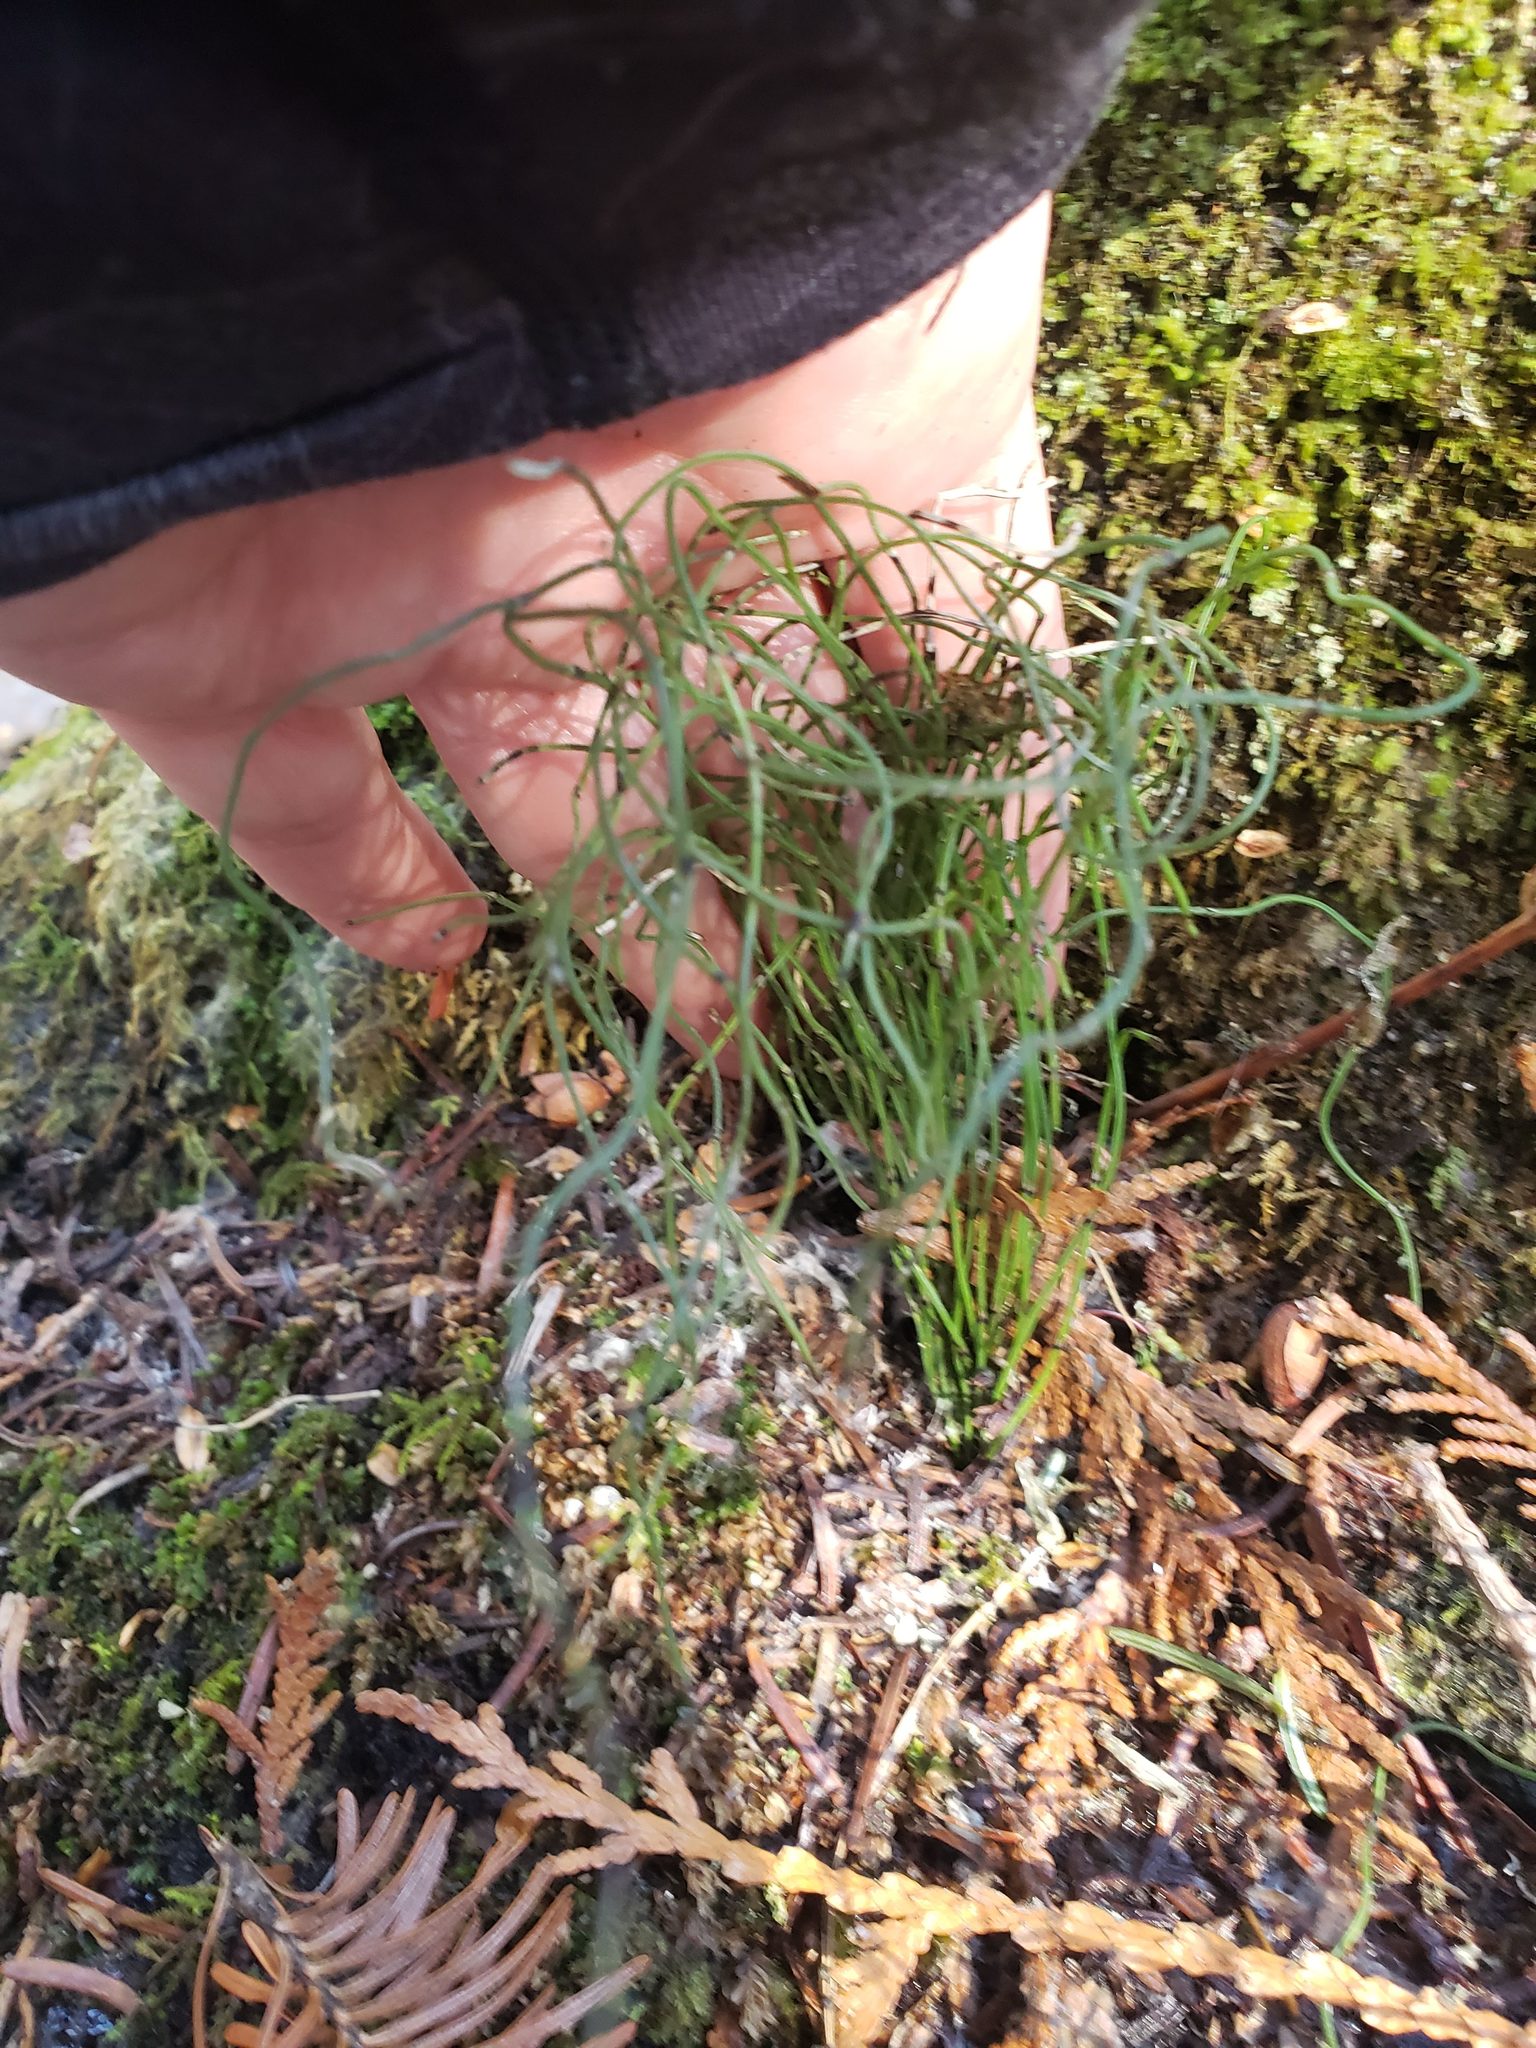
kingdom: Plantae
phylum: Tracheophyta
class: Polypodiopsida
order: Equisetales
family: Equisetaceae
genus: Equisetum
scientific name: Equisetum scirpoides
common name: Delicate horsetail
